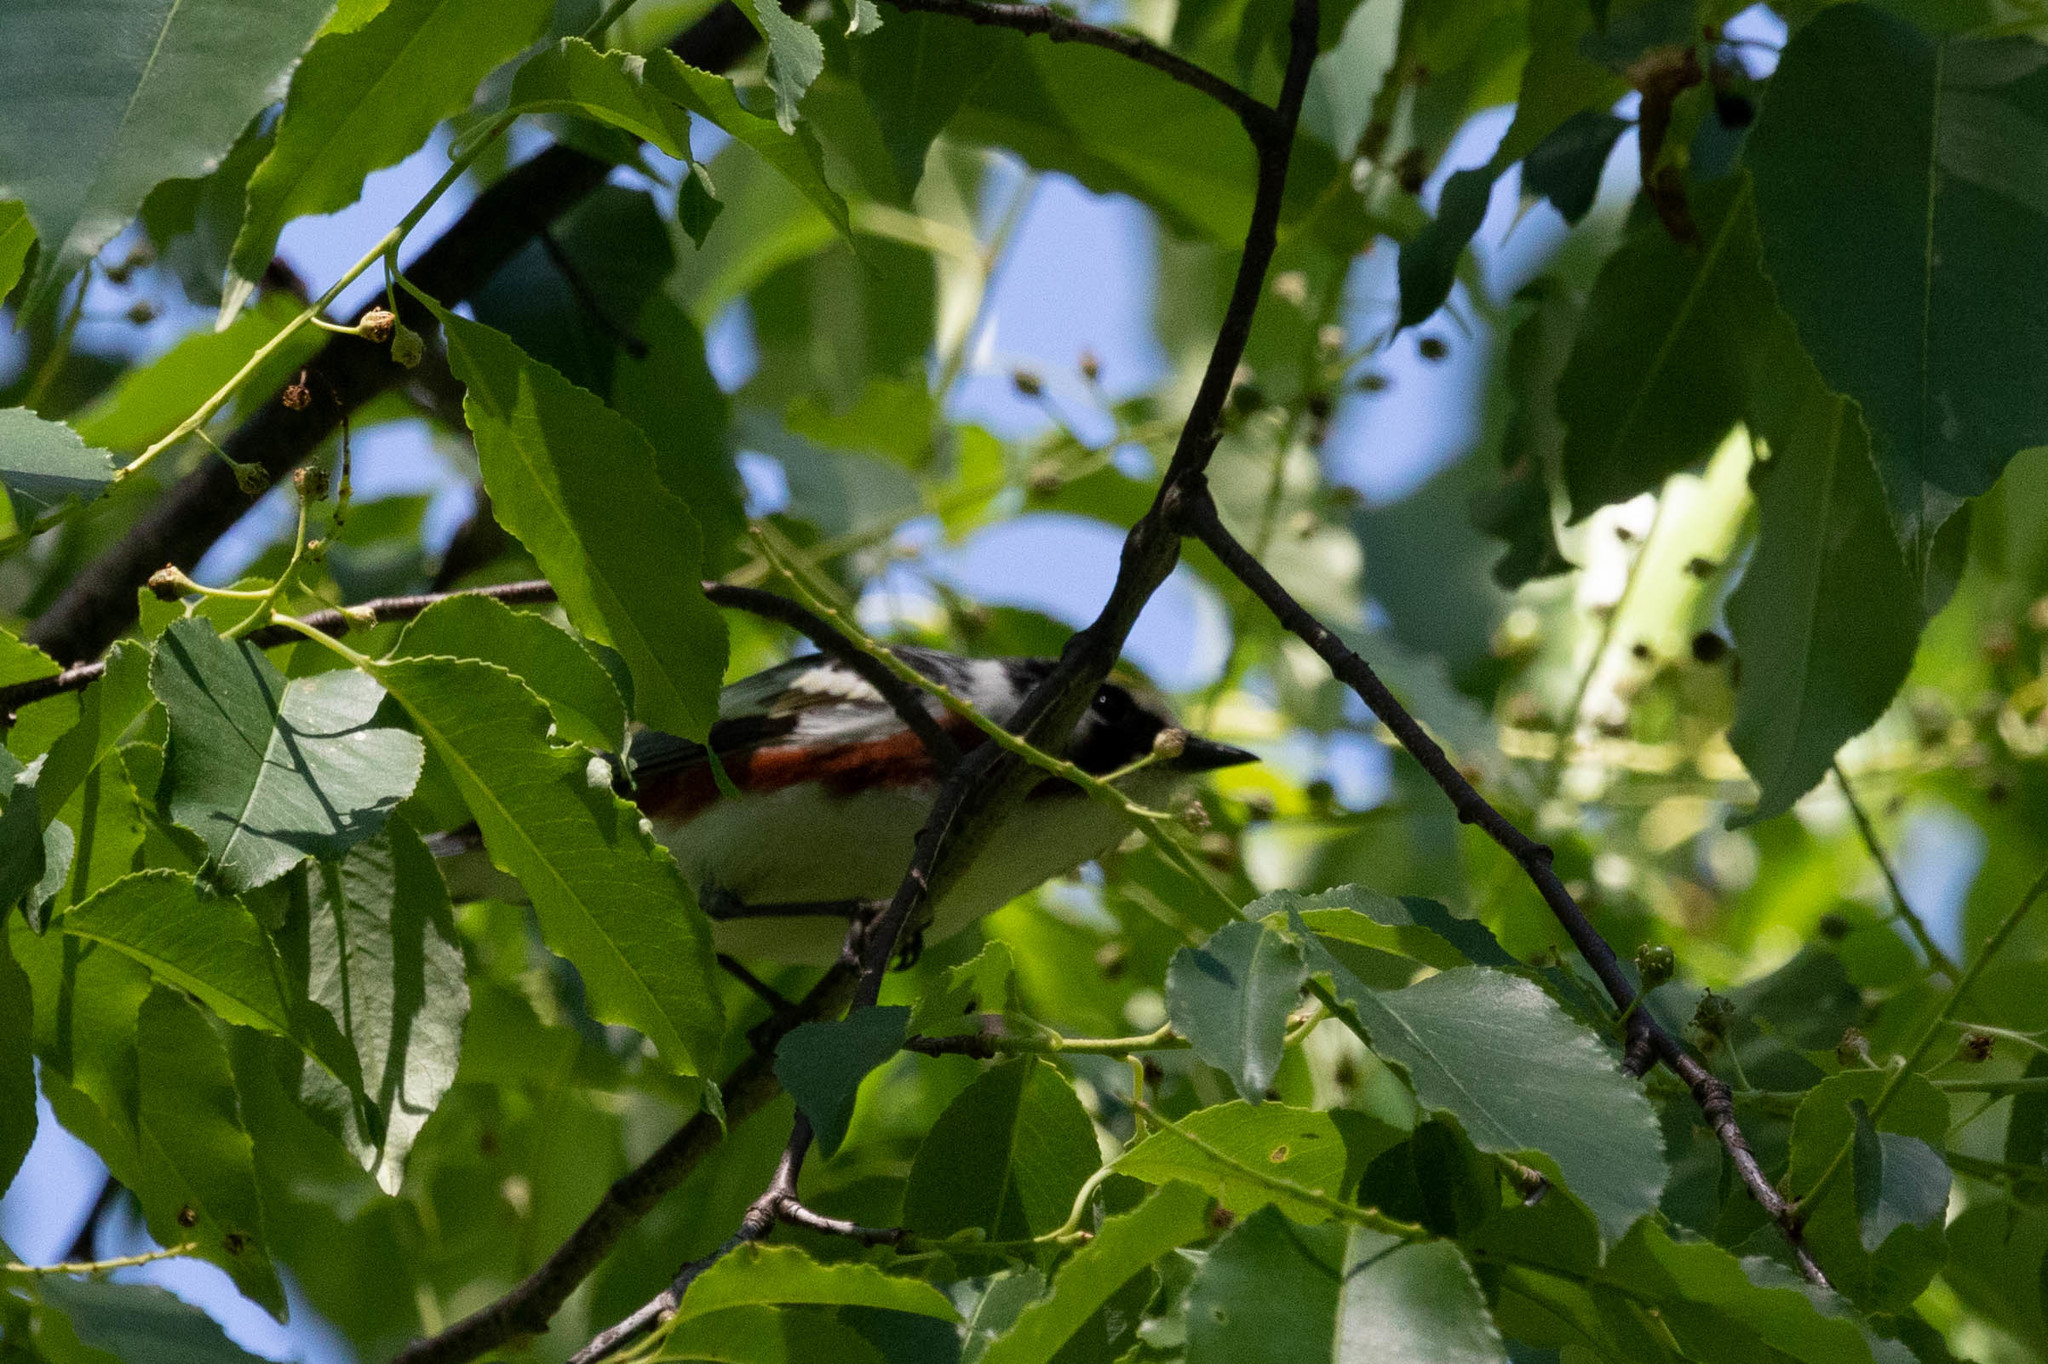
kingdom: Animalia
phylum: Chordata
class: Aves
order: Passeriformes
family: Parulidae
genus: Setophaga
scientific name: Setophaga pensylvanica
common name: Chestnut-sided warbler
